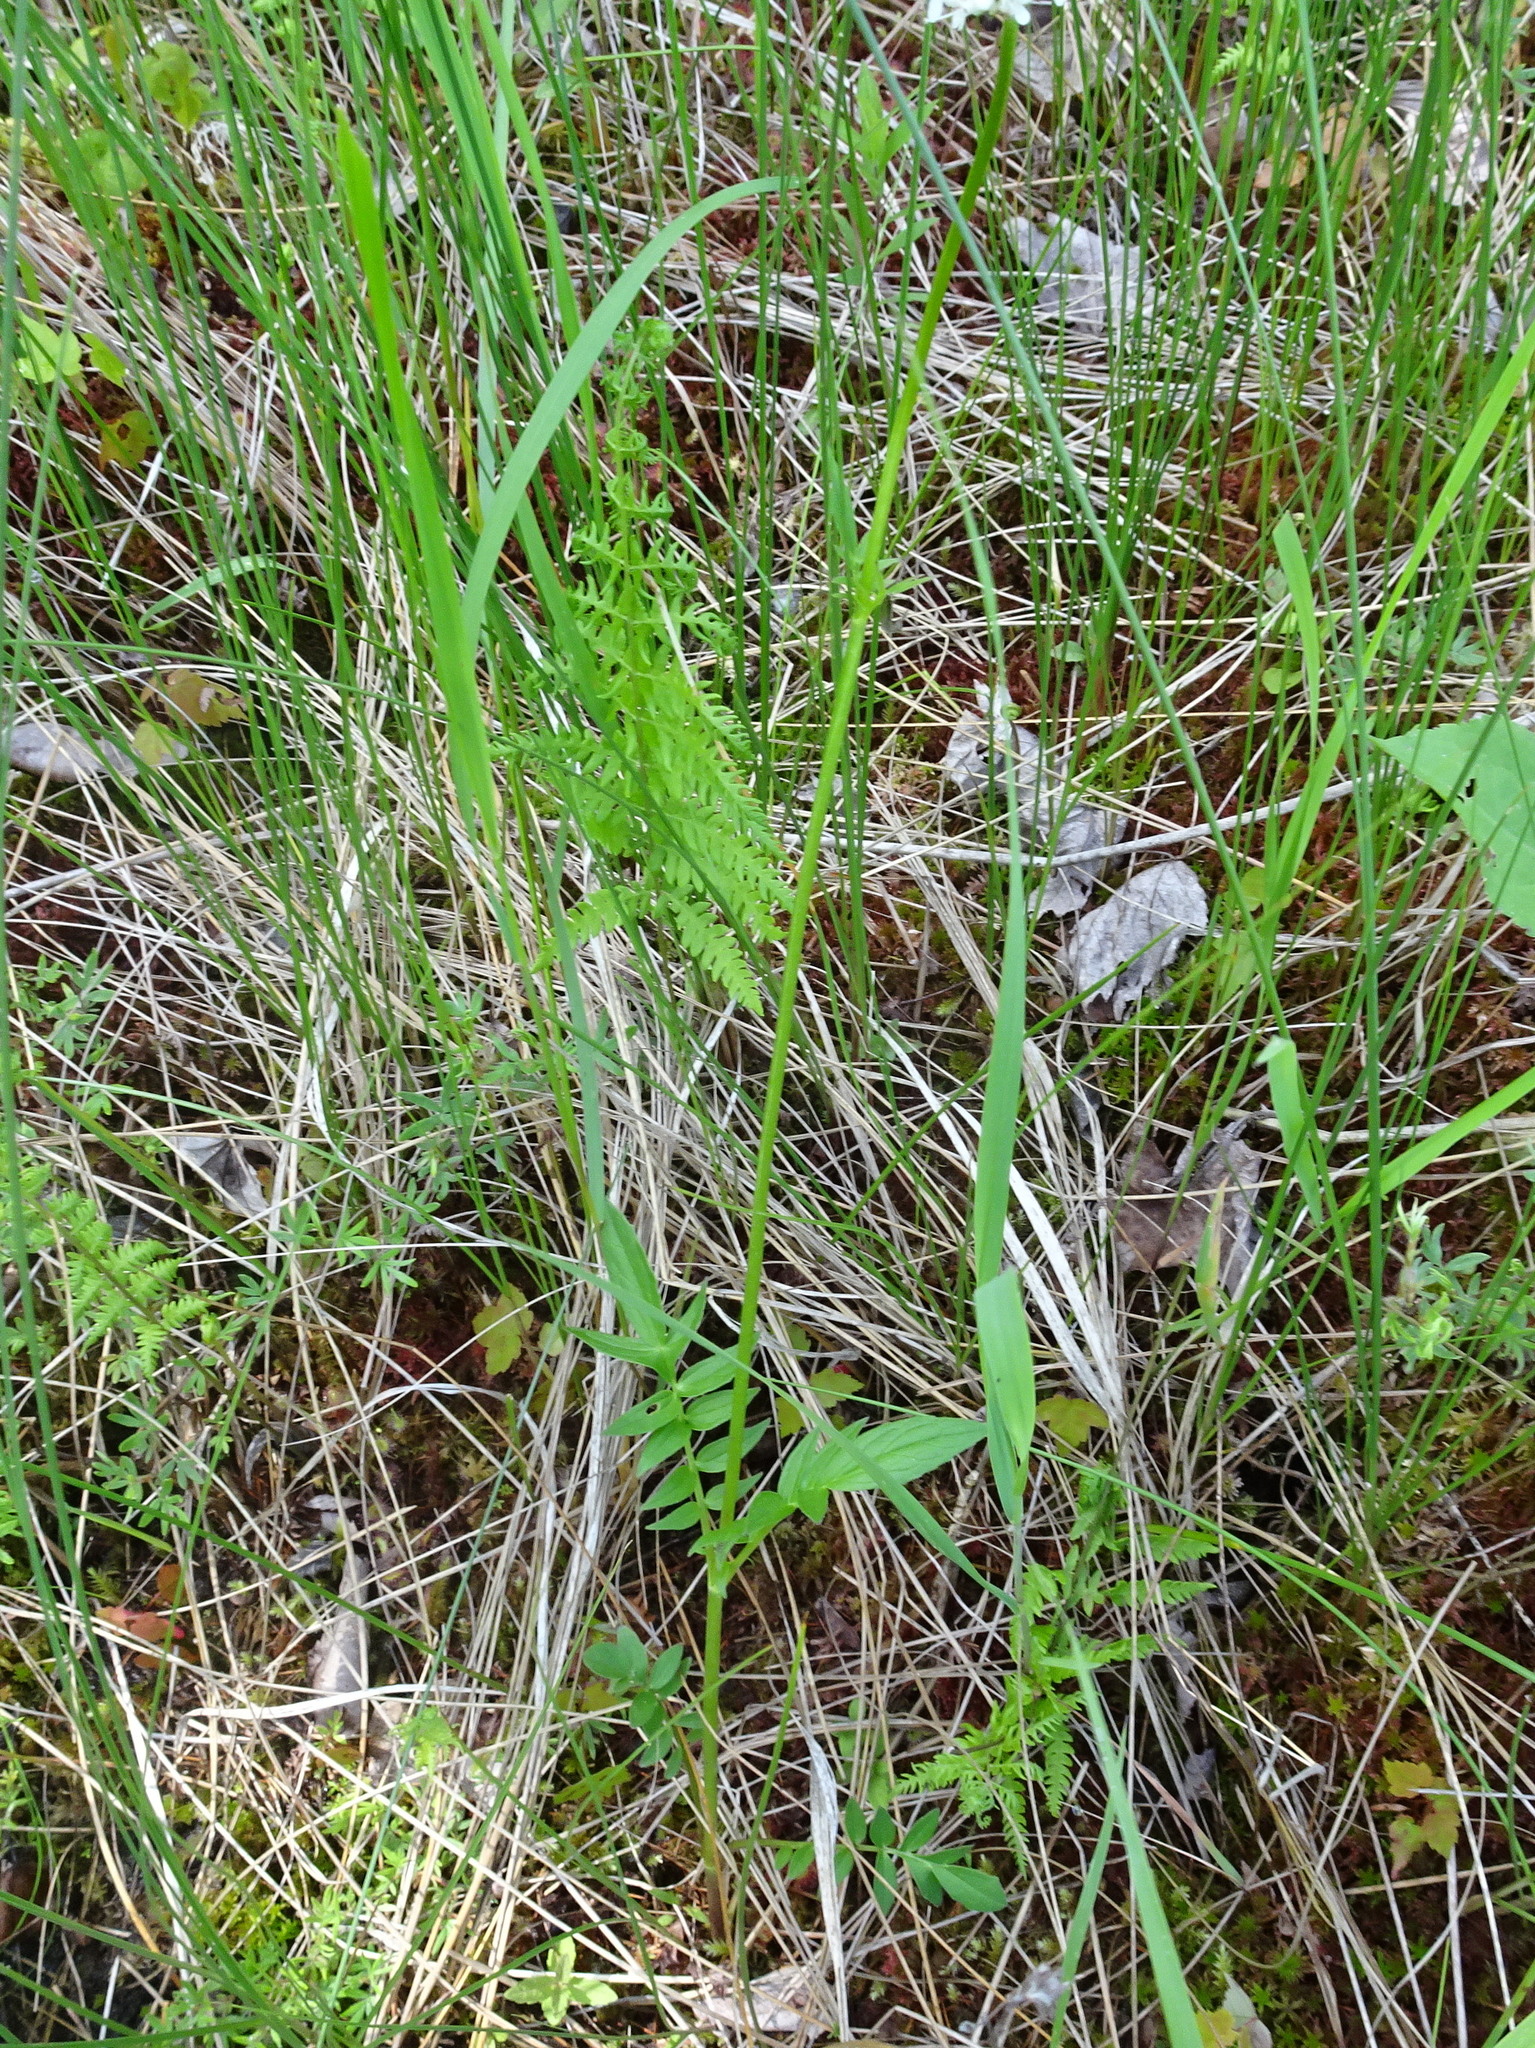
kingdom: Plantae
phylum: Tracheophyta
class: Magnoliopsida
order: Dipsacales
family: Caprifoliaceae
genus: Valeriana
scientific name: Valeriana uliginosa
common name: Marsh valerian
